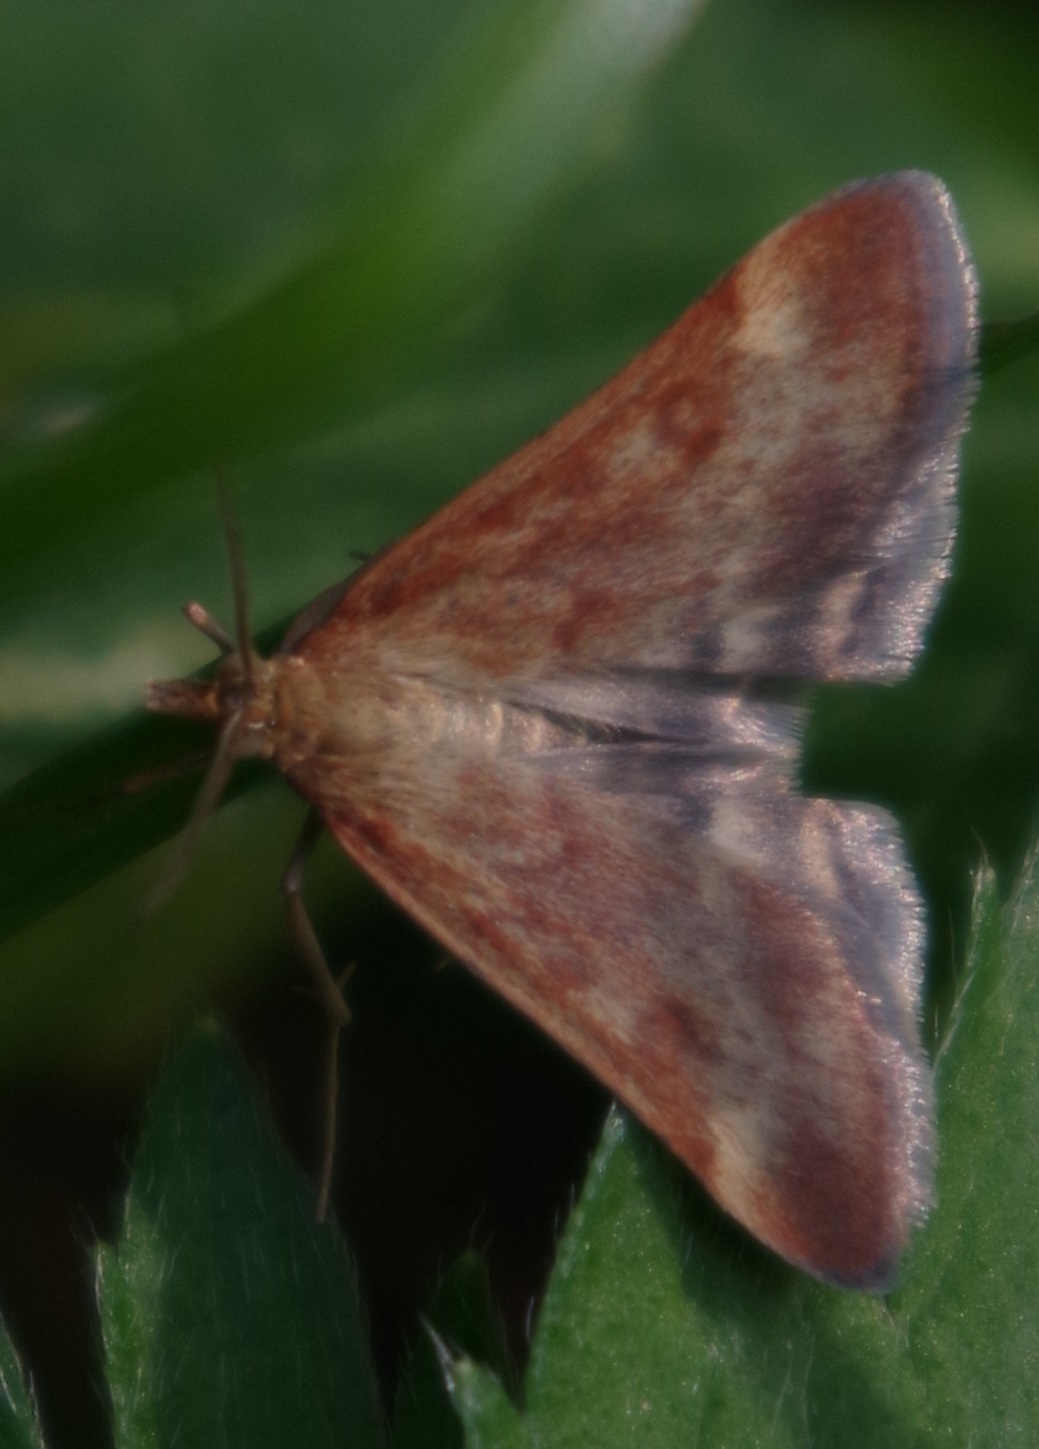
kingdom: Animalia
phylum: Arthropoda
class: Insecta
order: Lepidoptera
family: Crambidae
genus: Pyrausta
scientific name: Pyrausta despicata
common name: Straw-barred pearl
